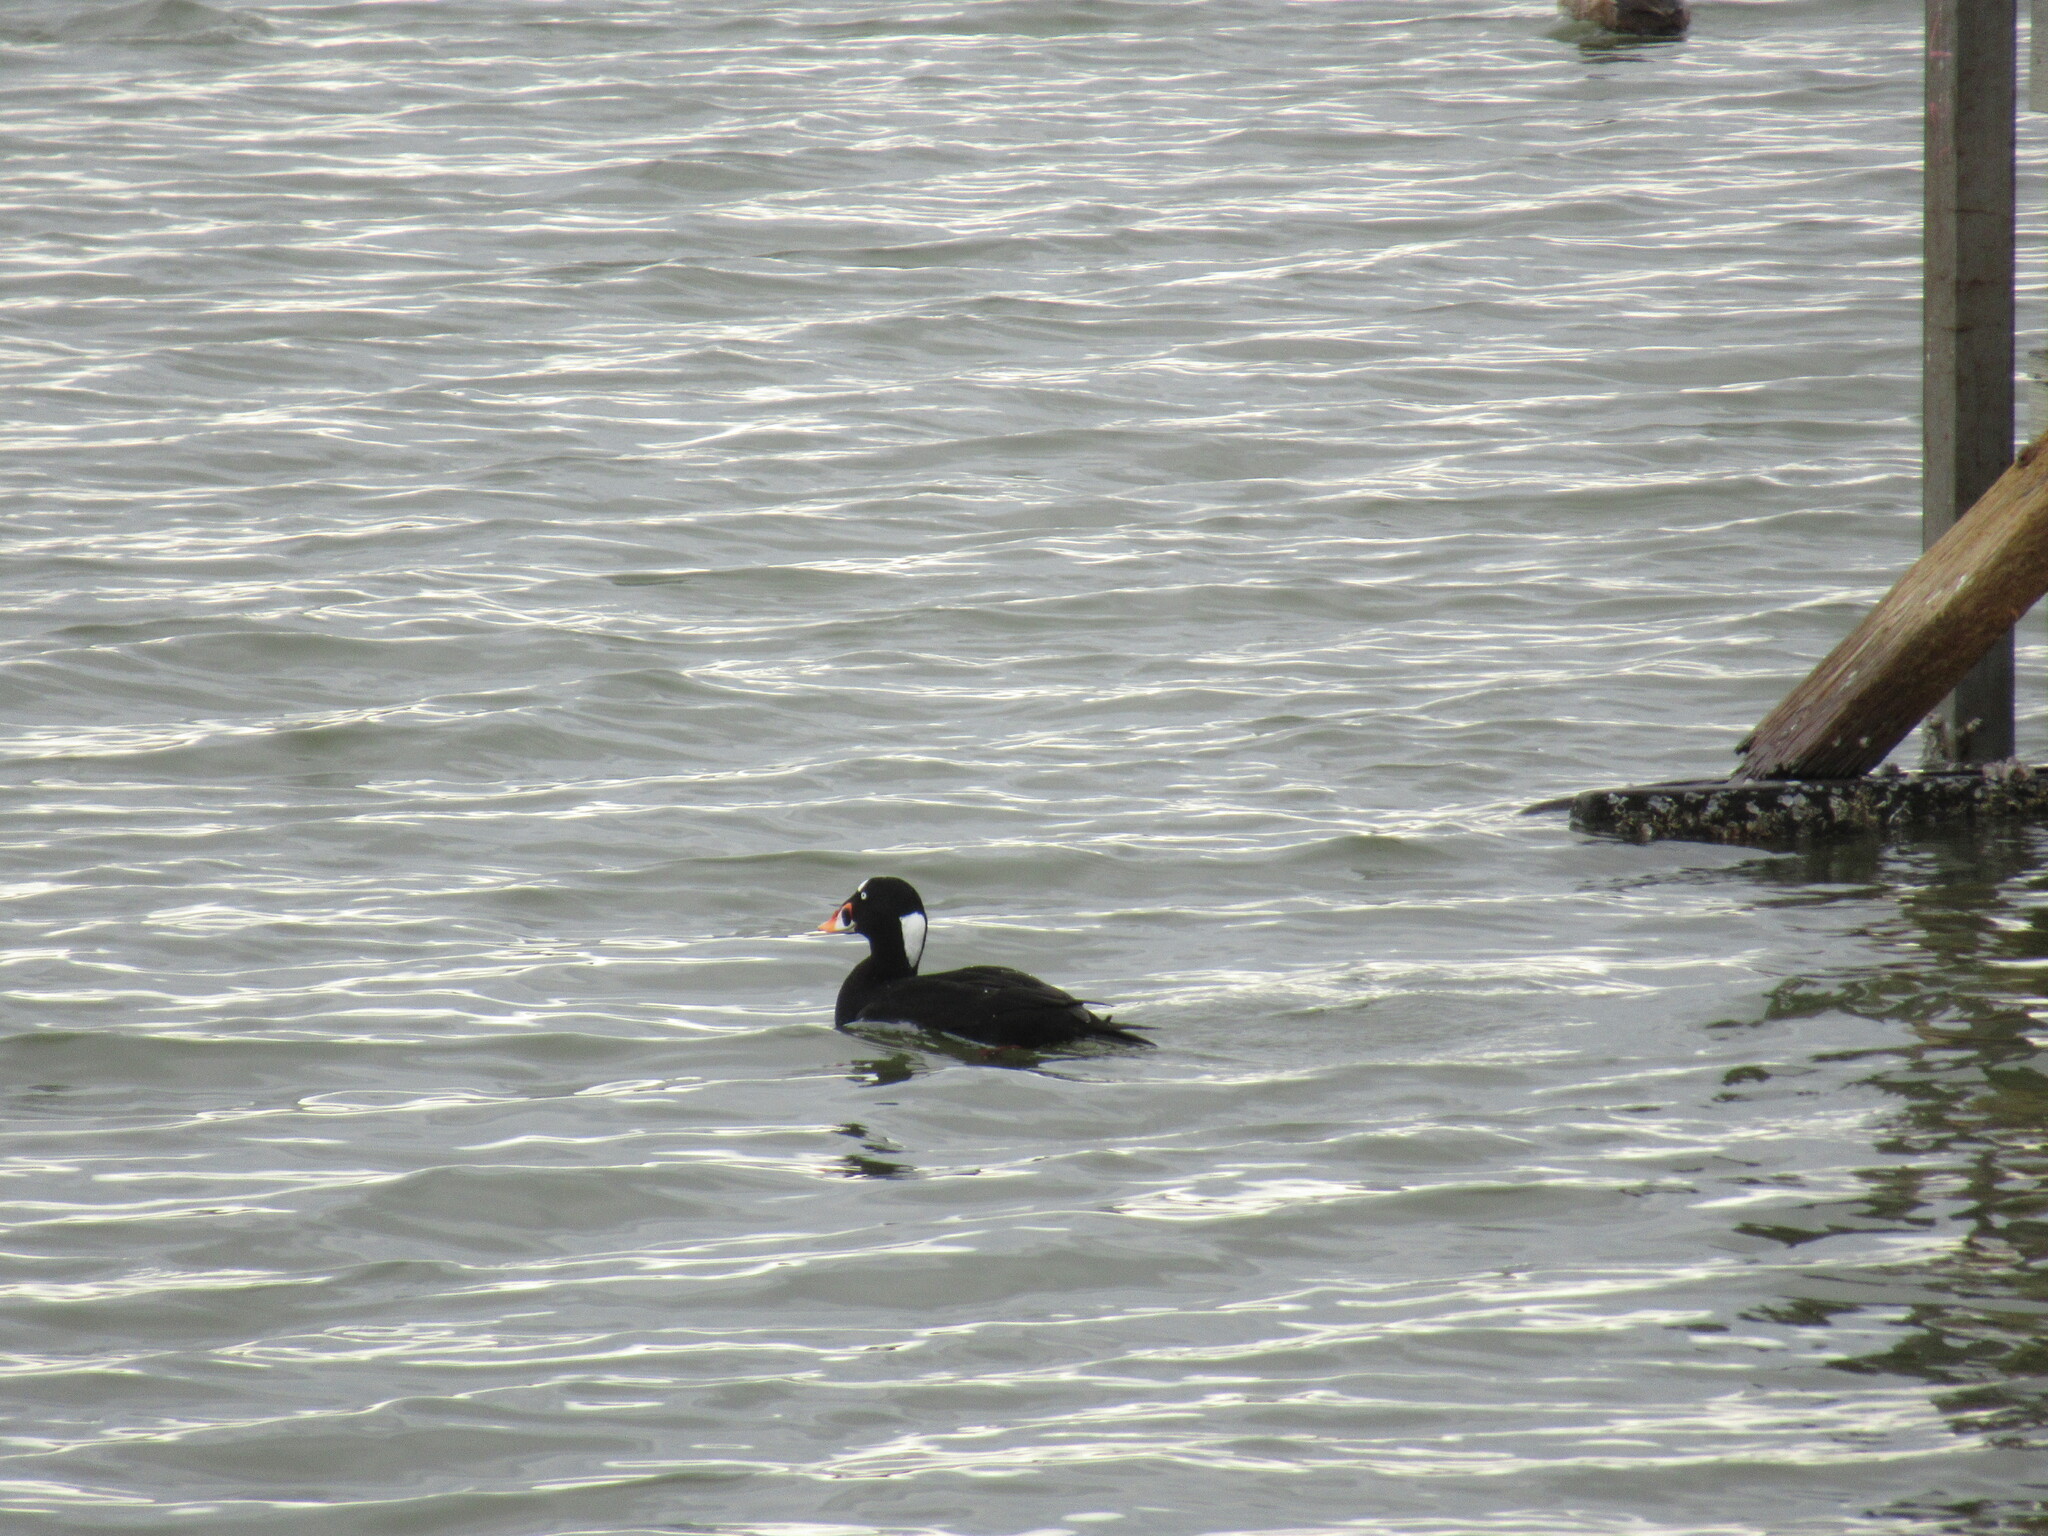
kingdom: Animalia
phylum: Chordata
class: Aves
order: Anseriformes
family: Anatidae
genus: Melanitta
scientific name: Melanitta perspicillata
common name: Surf scoter
